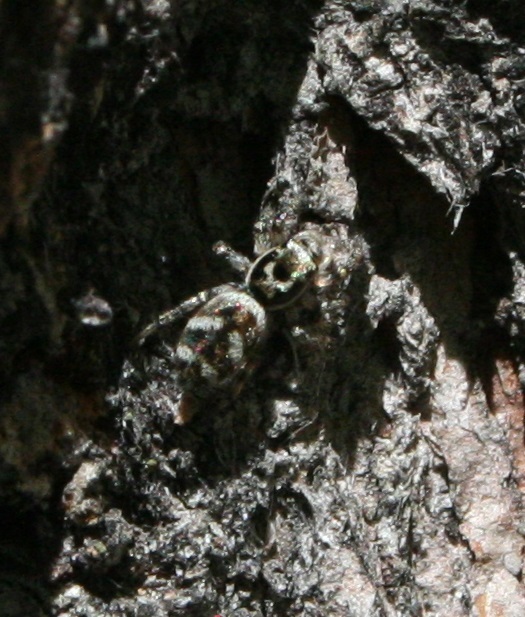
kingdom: Animalia
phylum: Arthropoda
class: Arachnida
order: Araneae
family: Salticidae
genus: Salticus
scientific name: Salticus scenicus
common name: Zebra jumper
